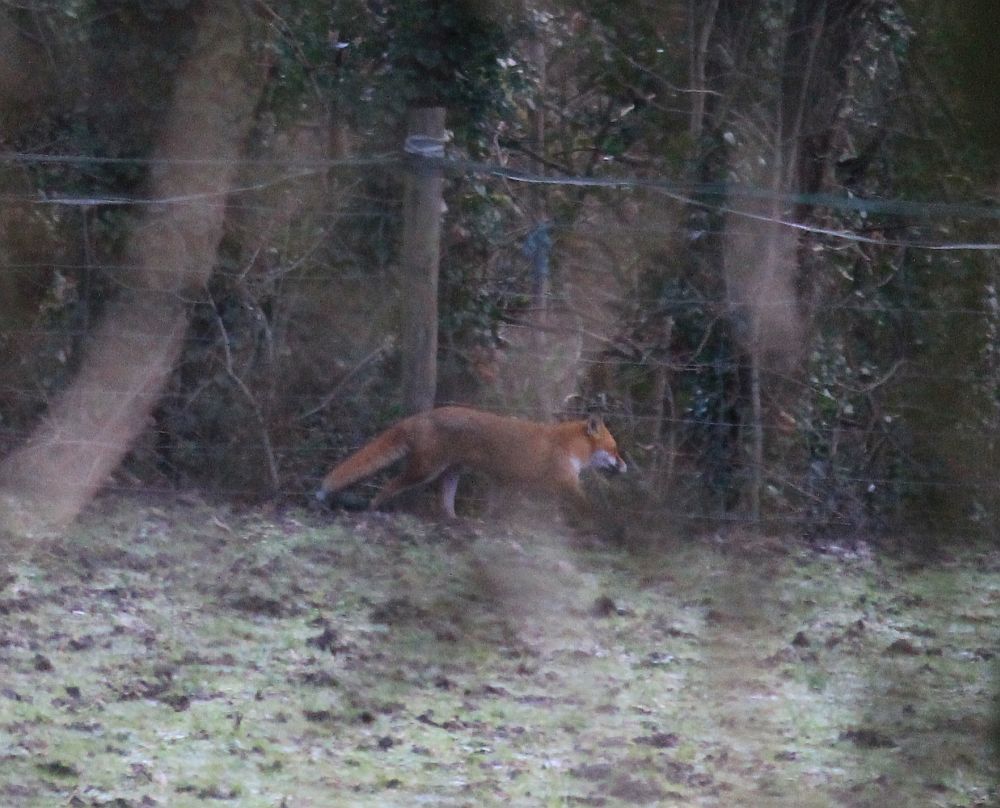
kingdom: Animalia
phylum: Chordata
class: Mammalia
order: Carnivora
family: Canidae
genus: Vulpes
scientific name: Vulpes vulpes
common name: Red fox
